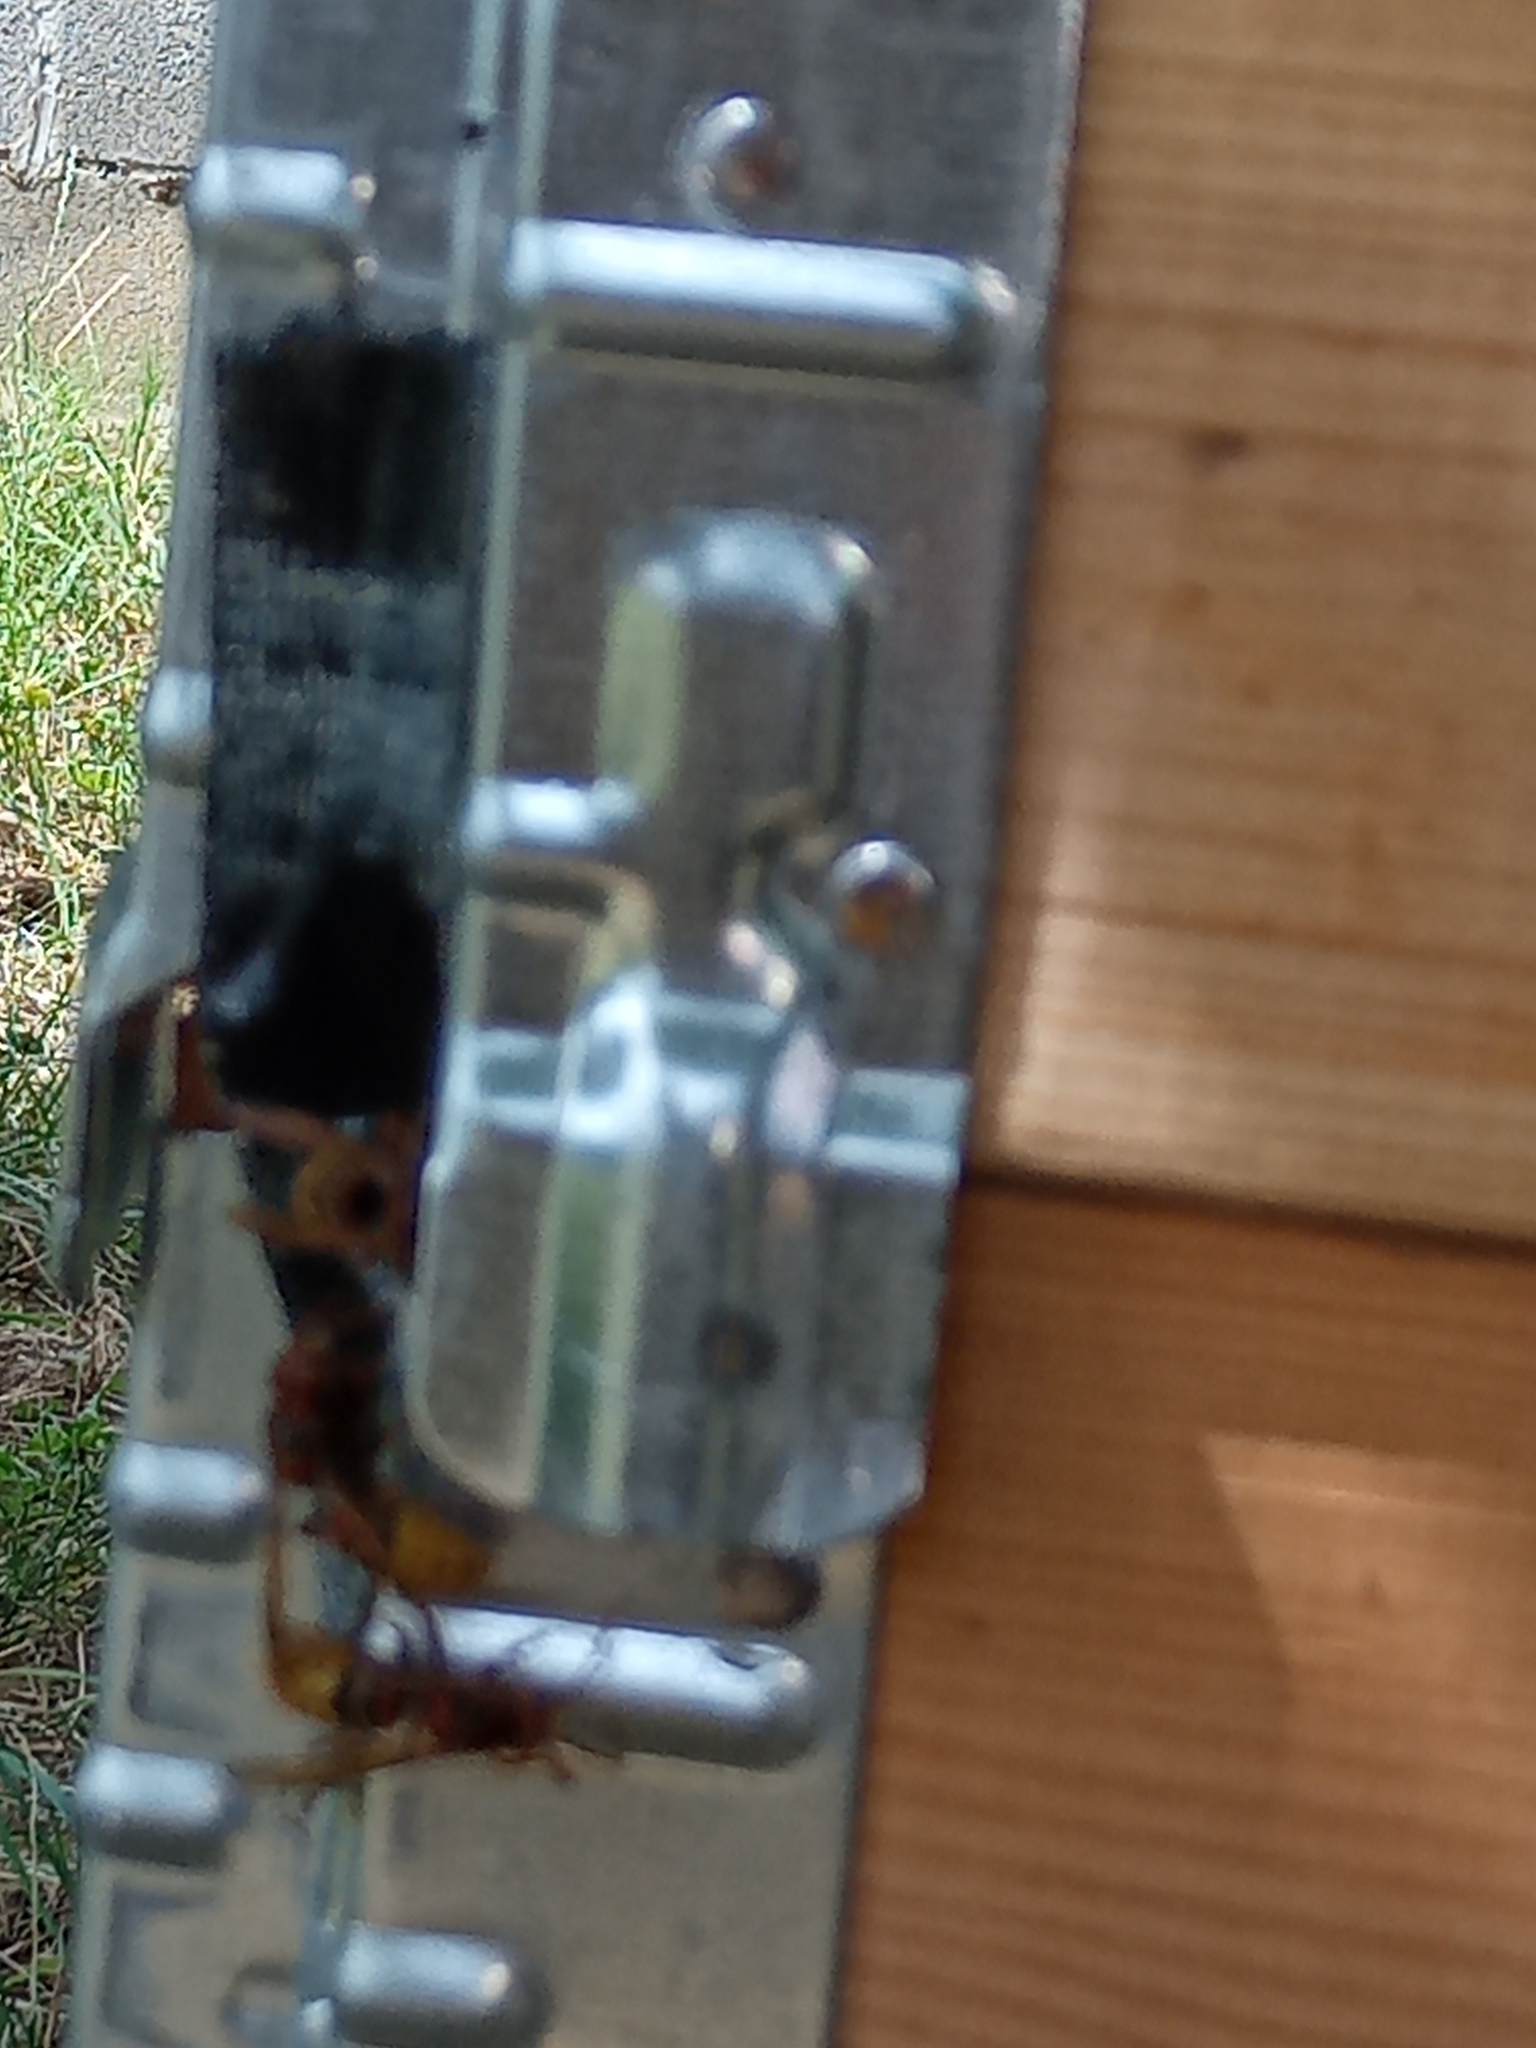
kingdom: Animalia
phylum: Arthropoda
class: Insecta
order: Hymenoptera
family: Vespidae
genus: Vespa
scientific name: Vespa crabro
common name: Hornet
